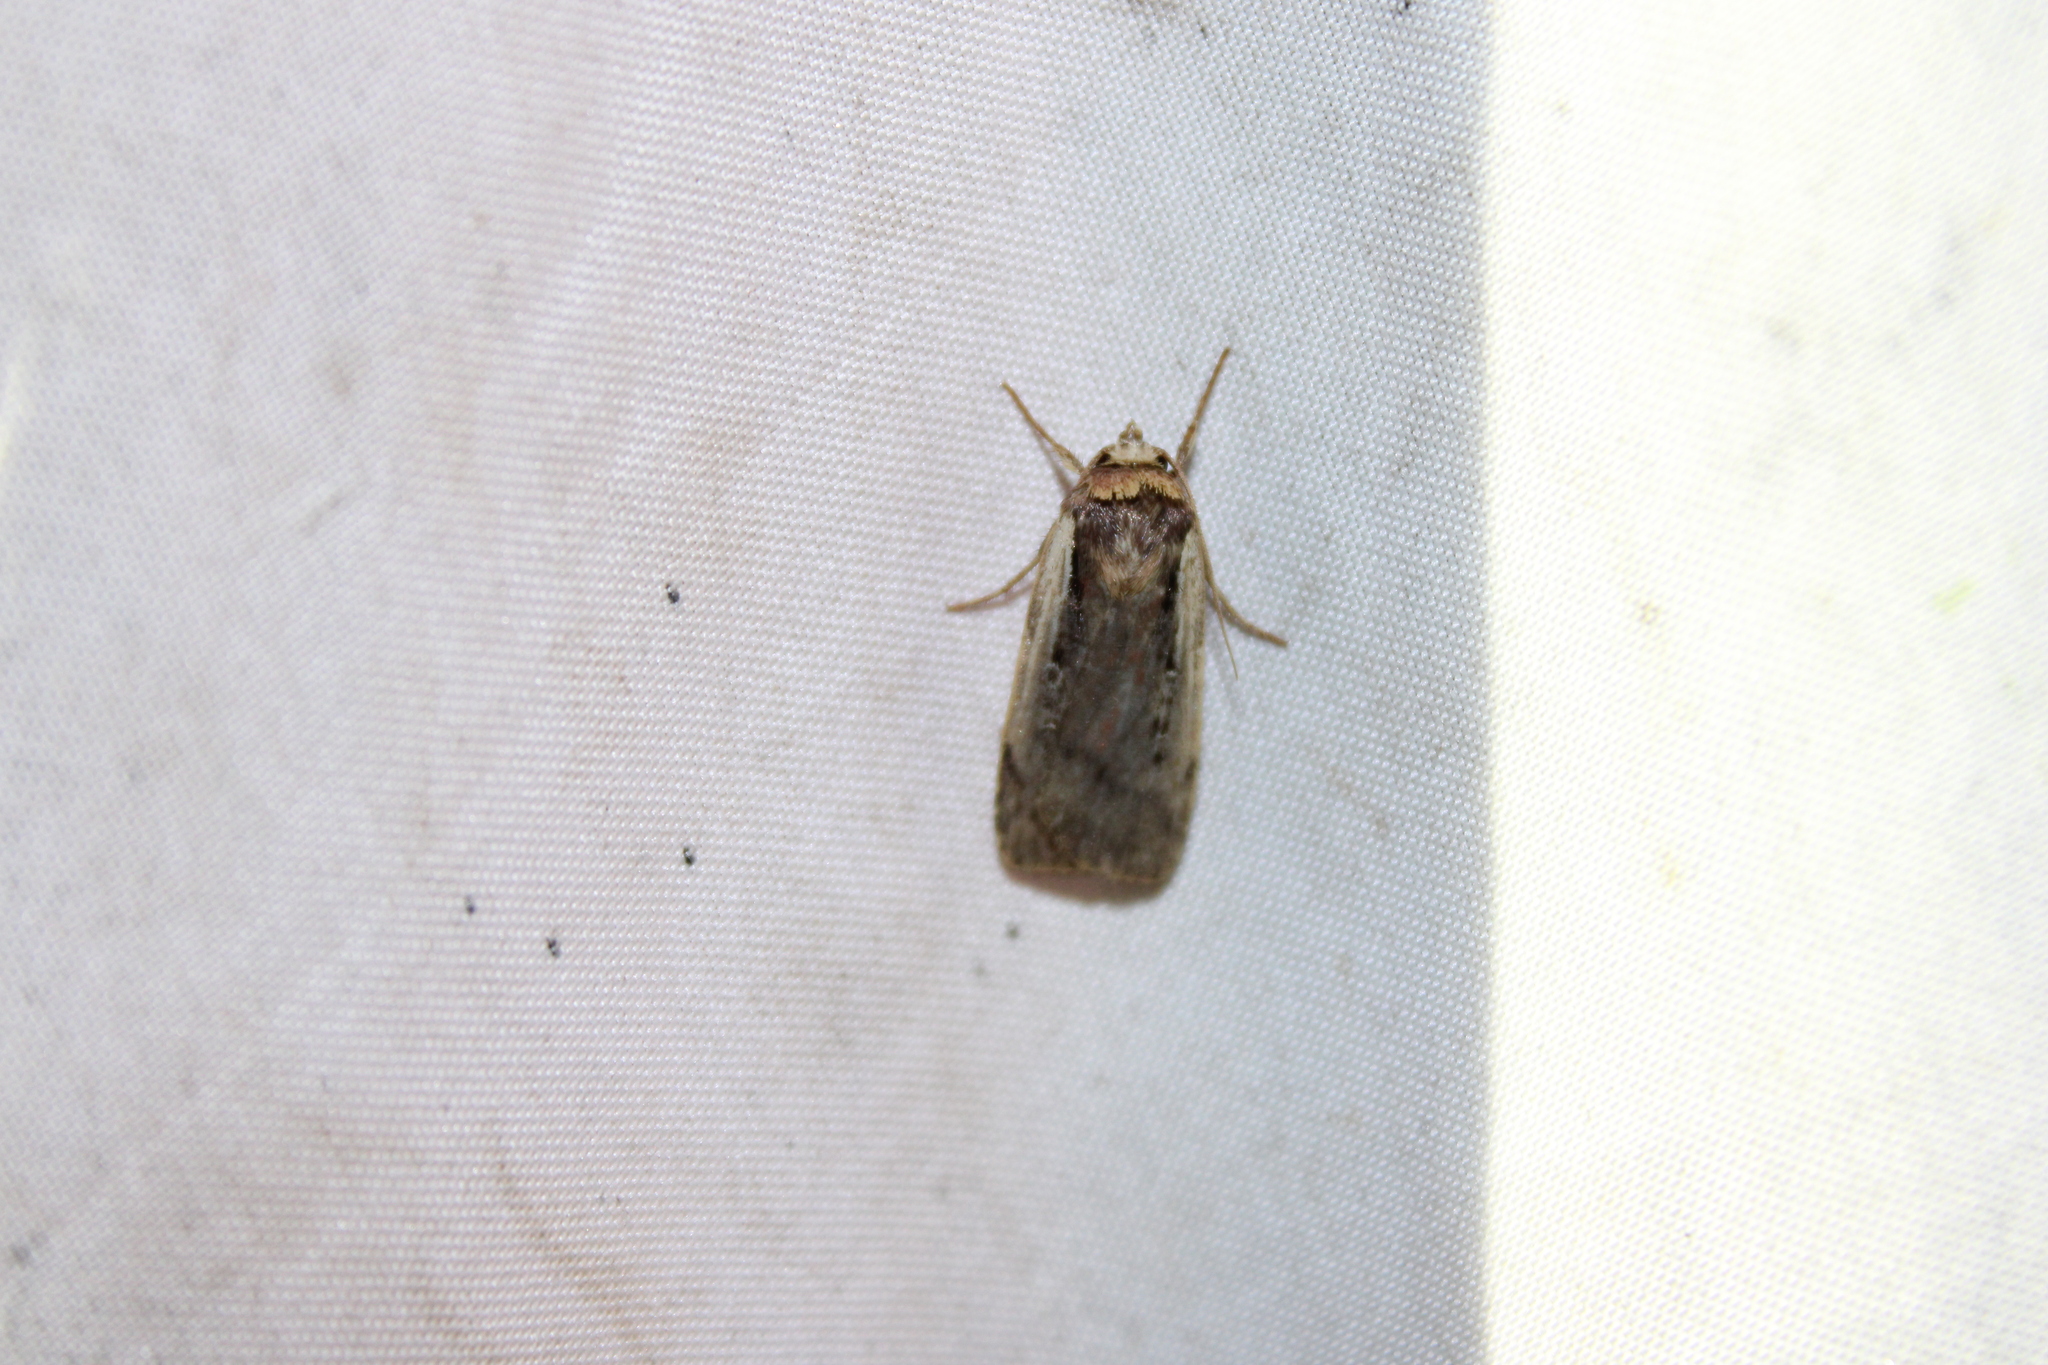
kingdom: Animalia
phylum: Arthropoda
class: Insecta
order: Lepidoptera
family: Noctuidae
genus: Ochropleura
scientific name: Ochropleura implecta
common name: Flame-shouldered dart
